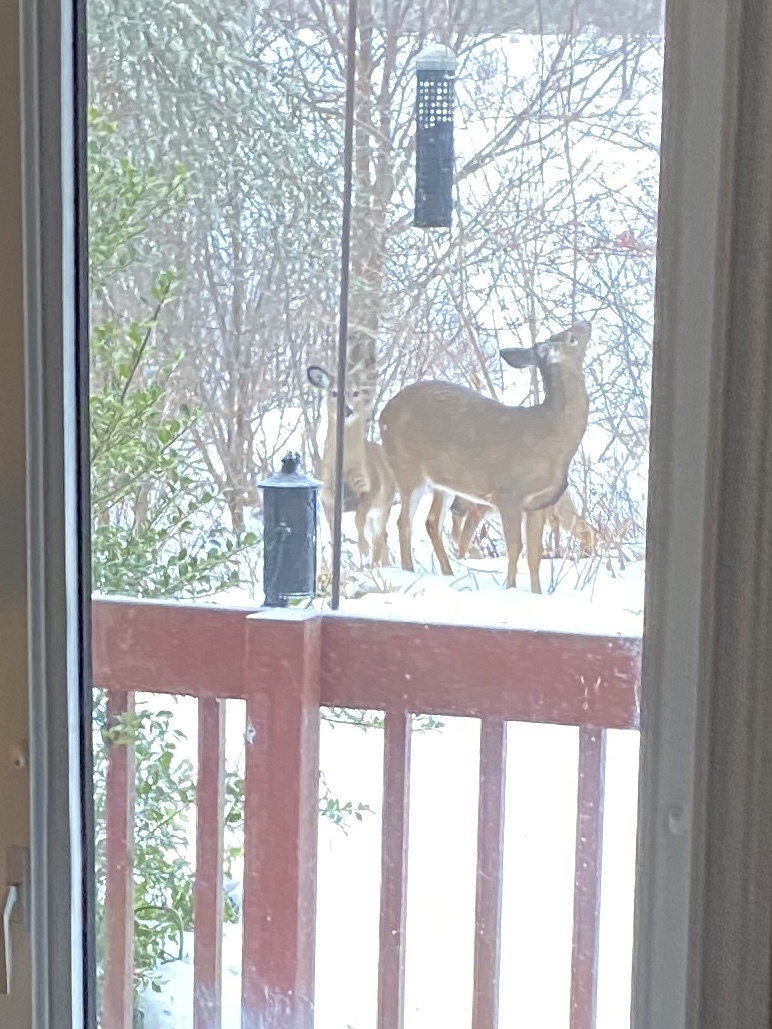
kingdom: Animalia
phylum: Chordata
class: Mammalia
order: Artiodactyla
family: Cervidae
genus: Odocoileus
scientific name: Odocoileus virginianus
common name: White-tailed deer
